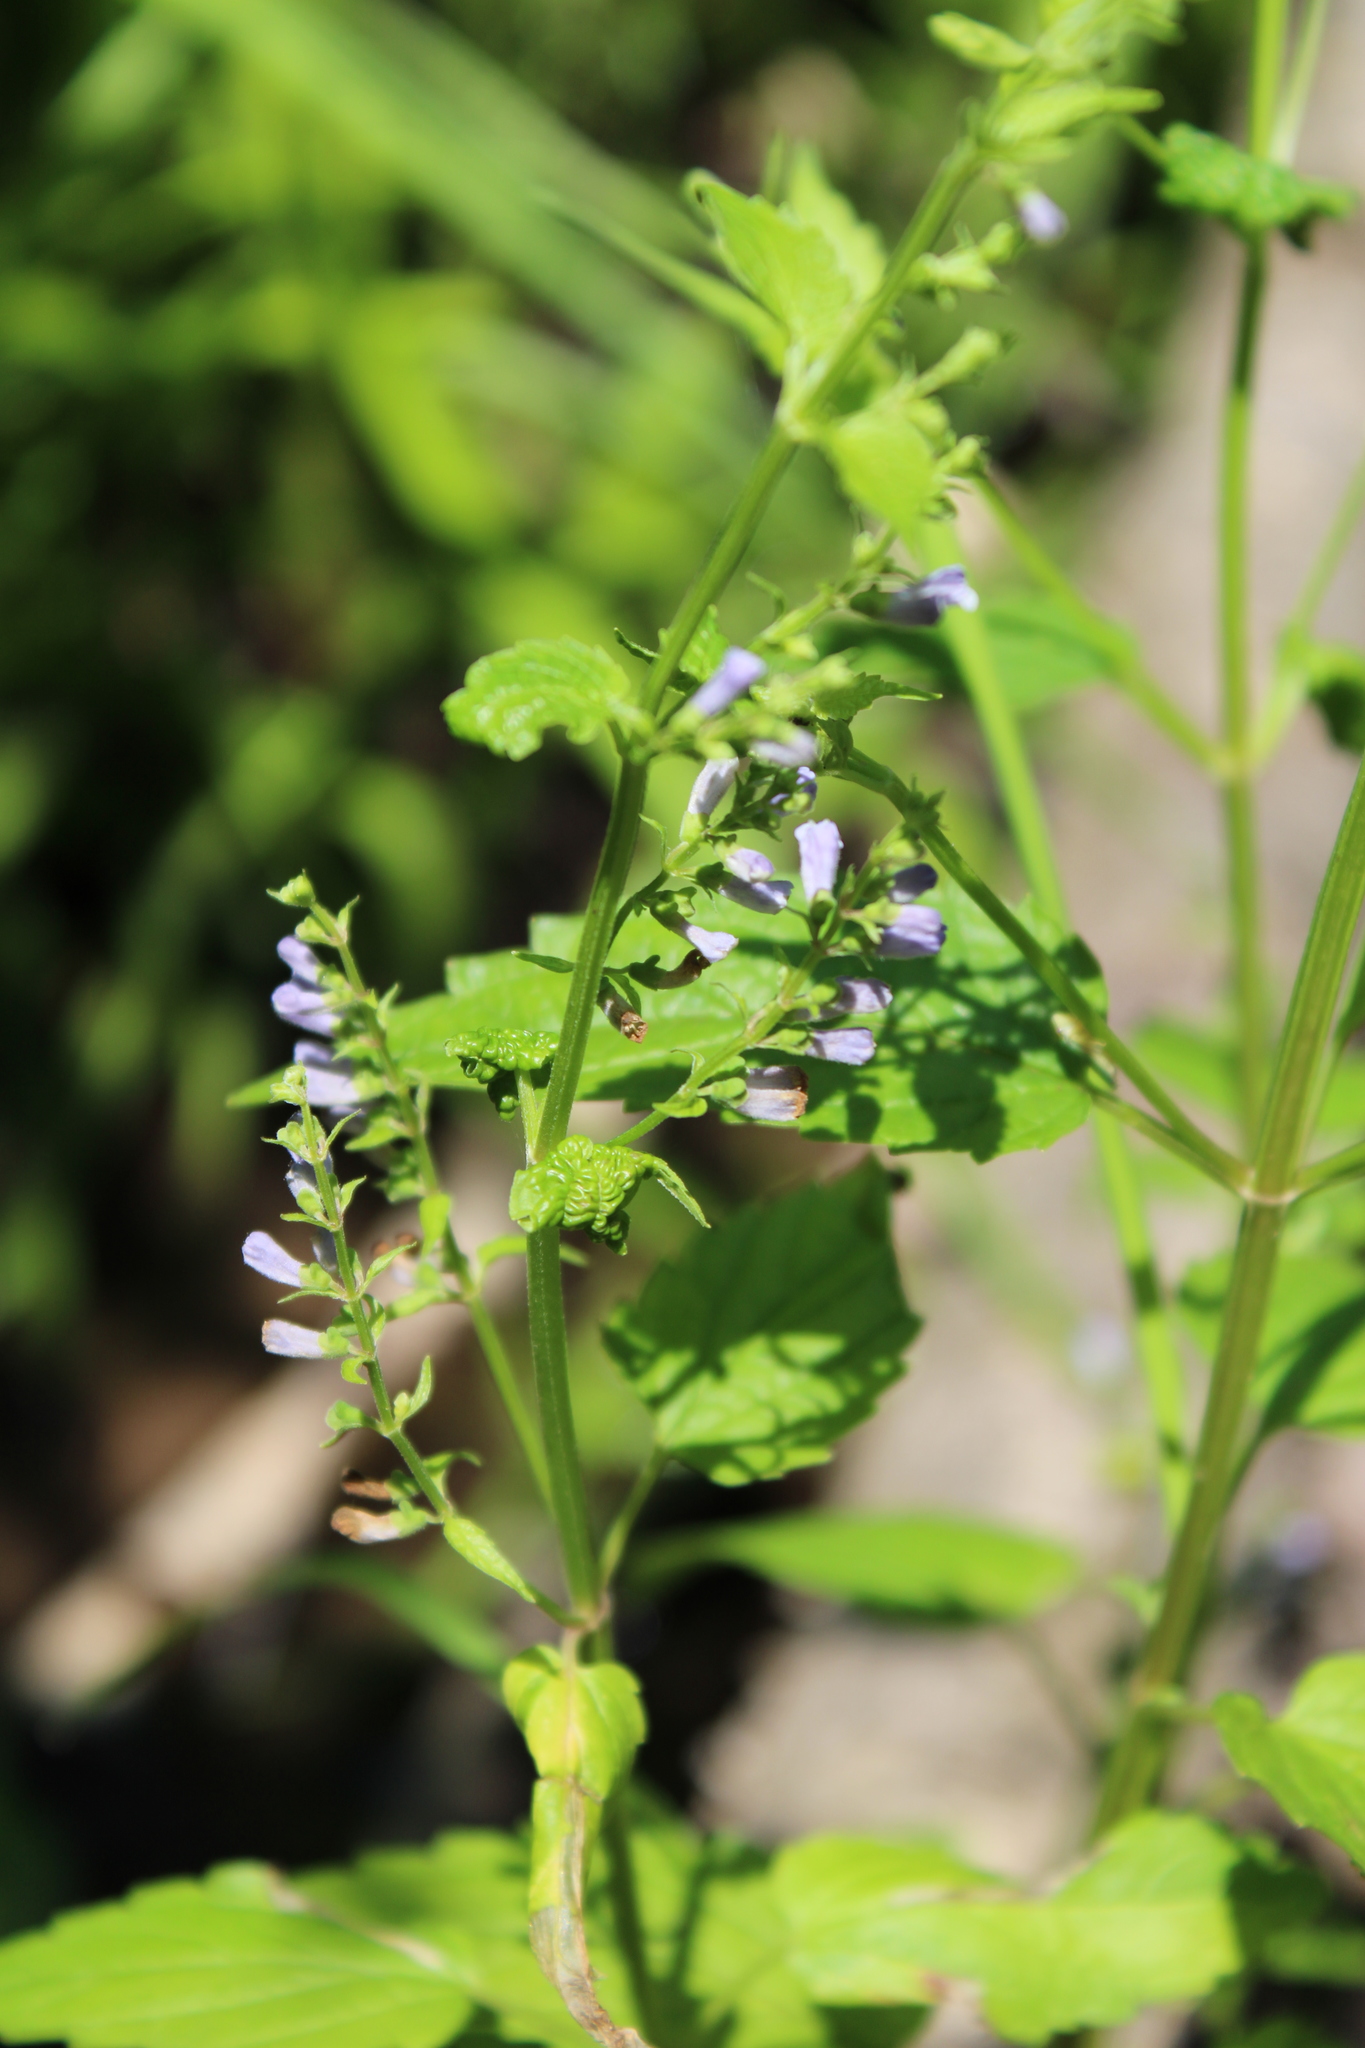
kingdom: Plantae
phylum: Tracheophyta
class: Magnoliopsida
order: Lamiales
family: Lamiaceae
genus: Scutellaria
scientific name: Scutellaria lateriflora
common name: Blue skullcap
